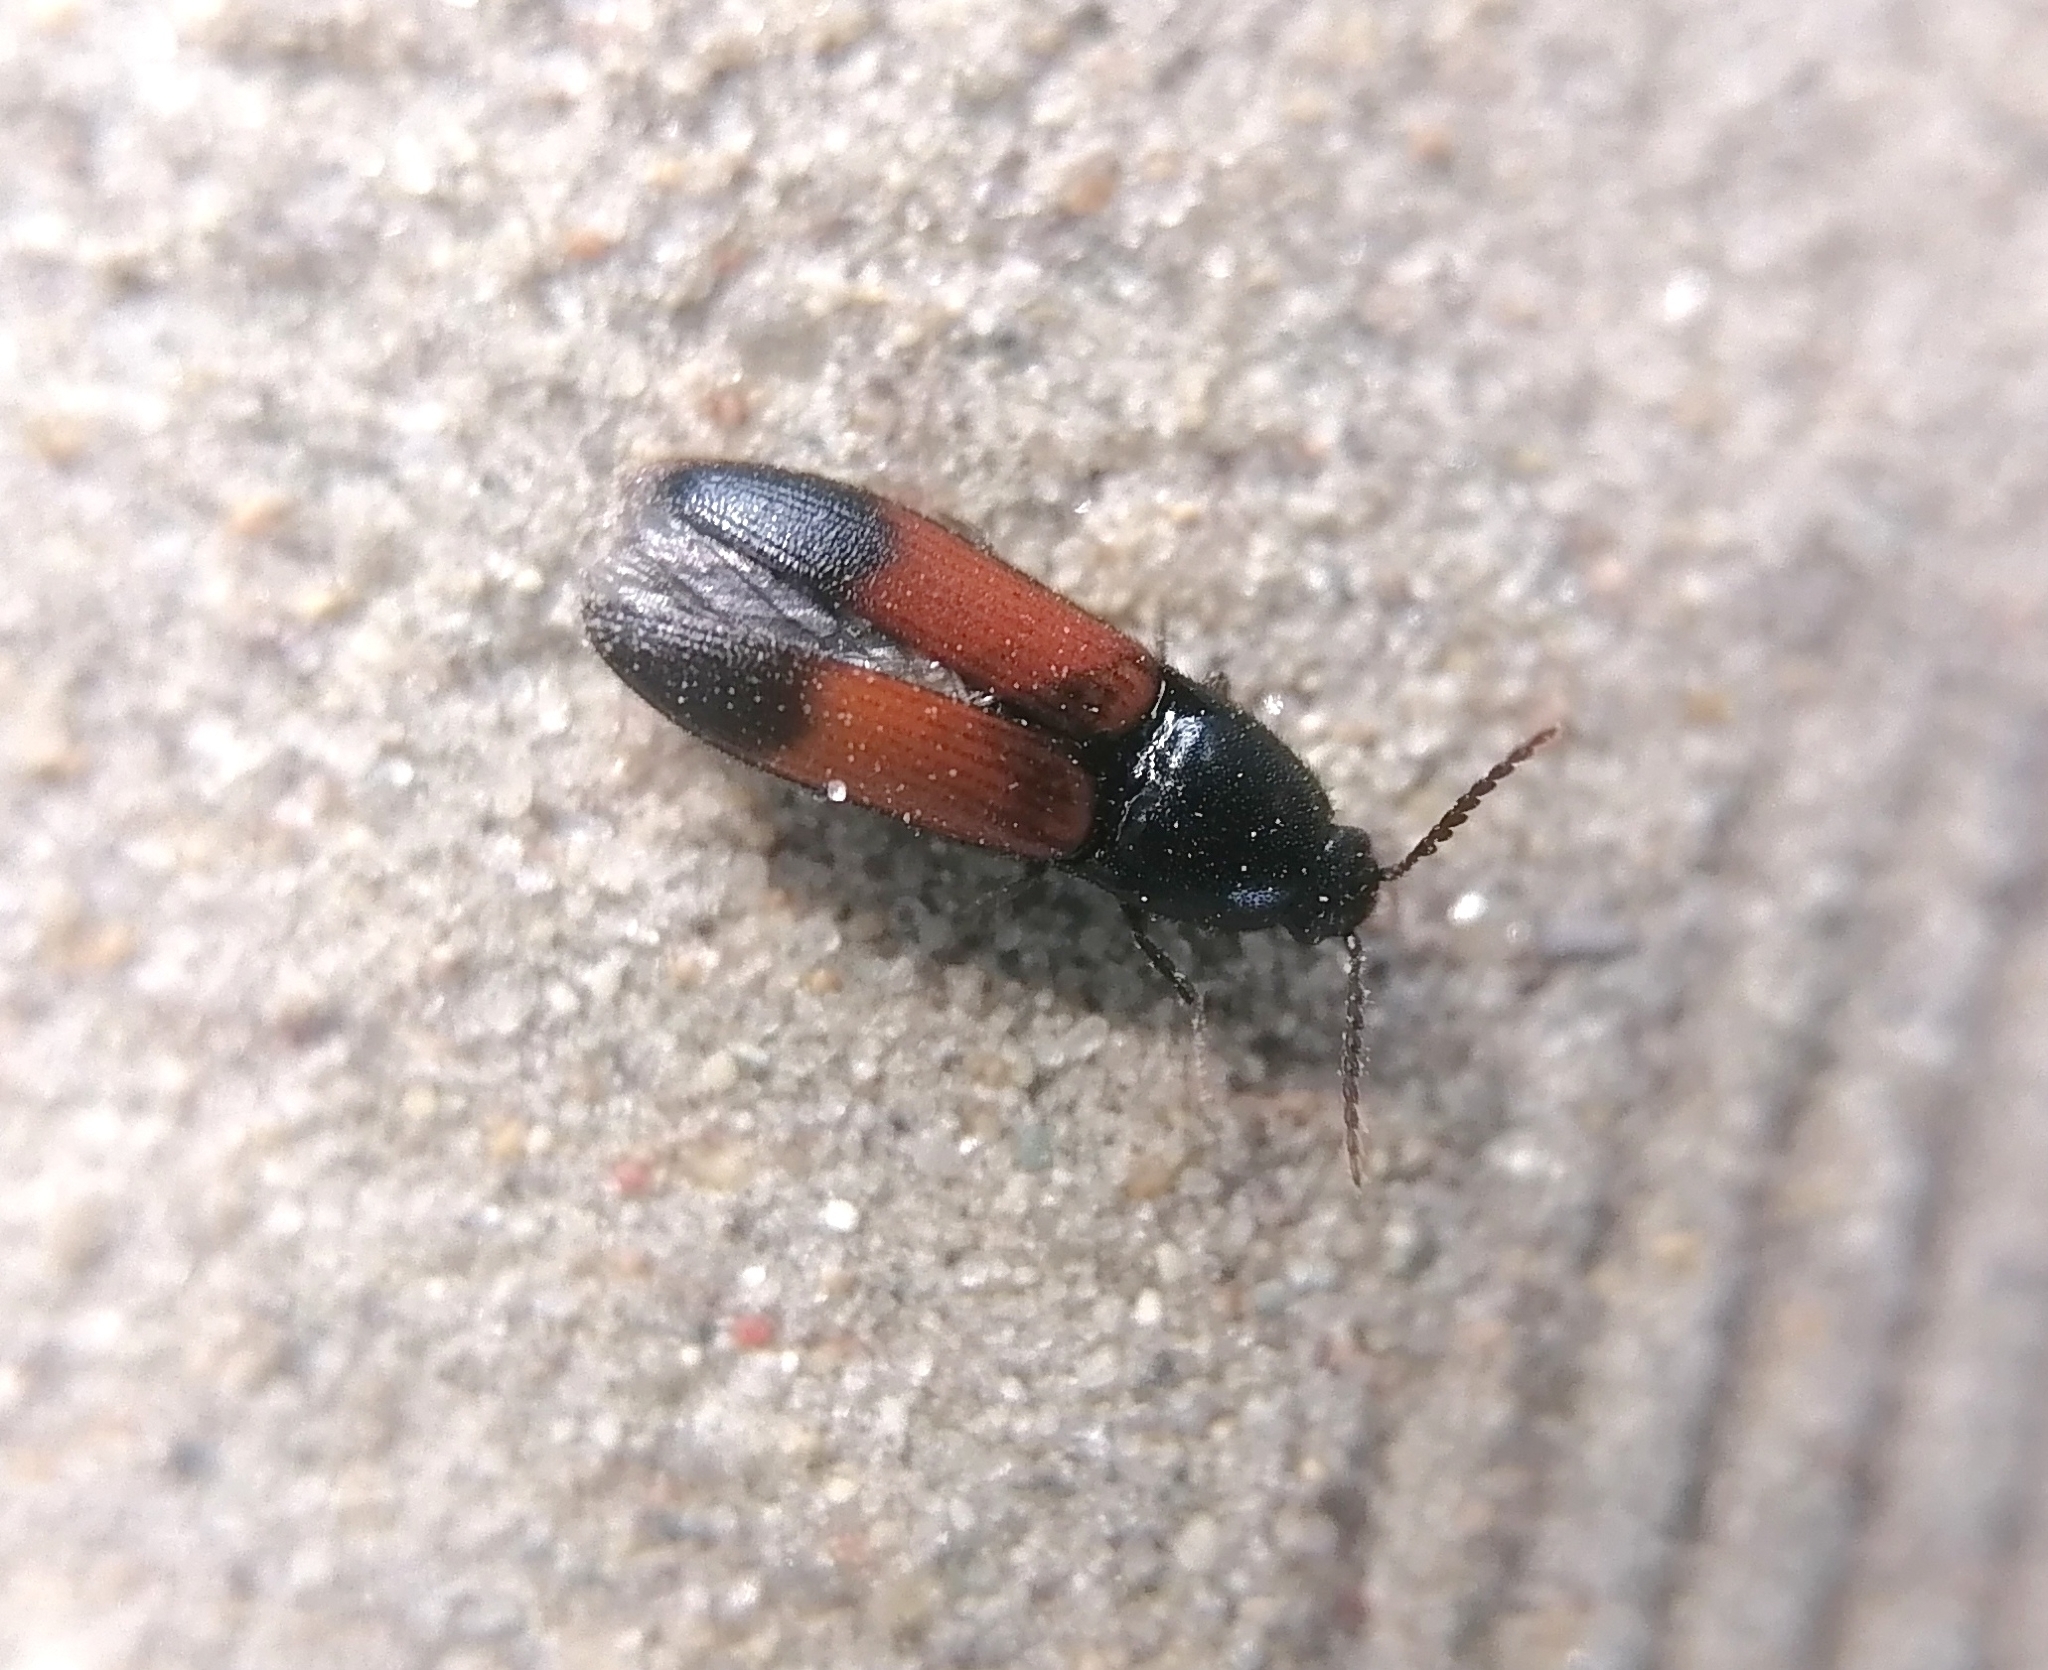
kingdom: Animalia
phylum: Arthropoda
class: Insecta
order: Coleoptera
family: Elateridae
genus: Ampedus
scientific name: Ampedus balteatus
